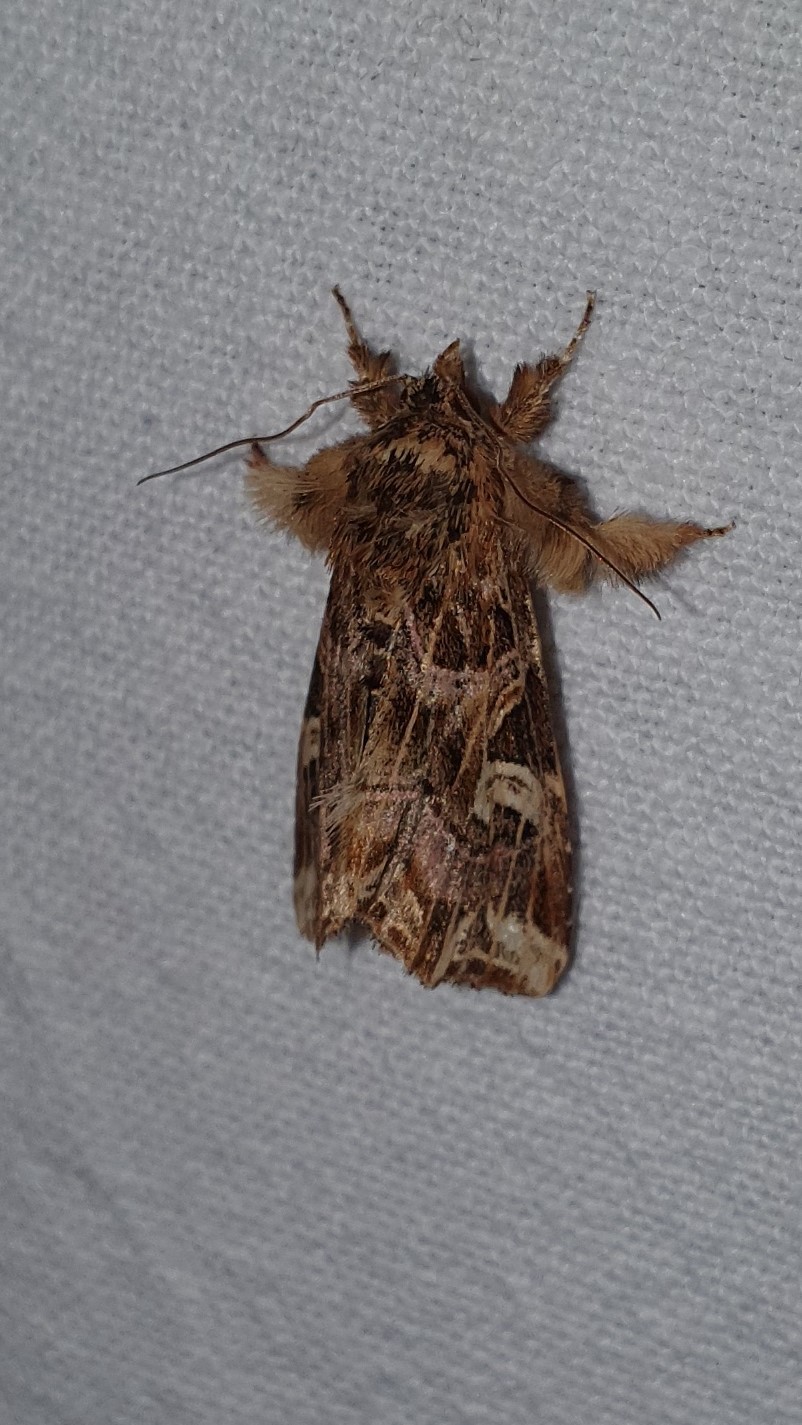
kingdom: Animalia
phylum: Arthropoda
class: Insecta
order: Lepidoptera
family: Noctuidae
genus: Callopistria
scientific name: Callopistria juventina
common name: Latin
